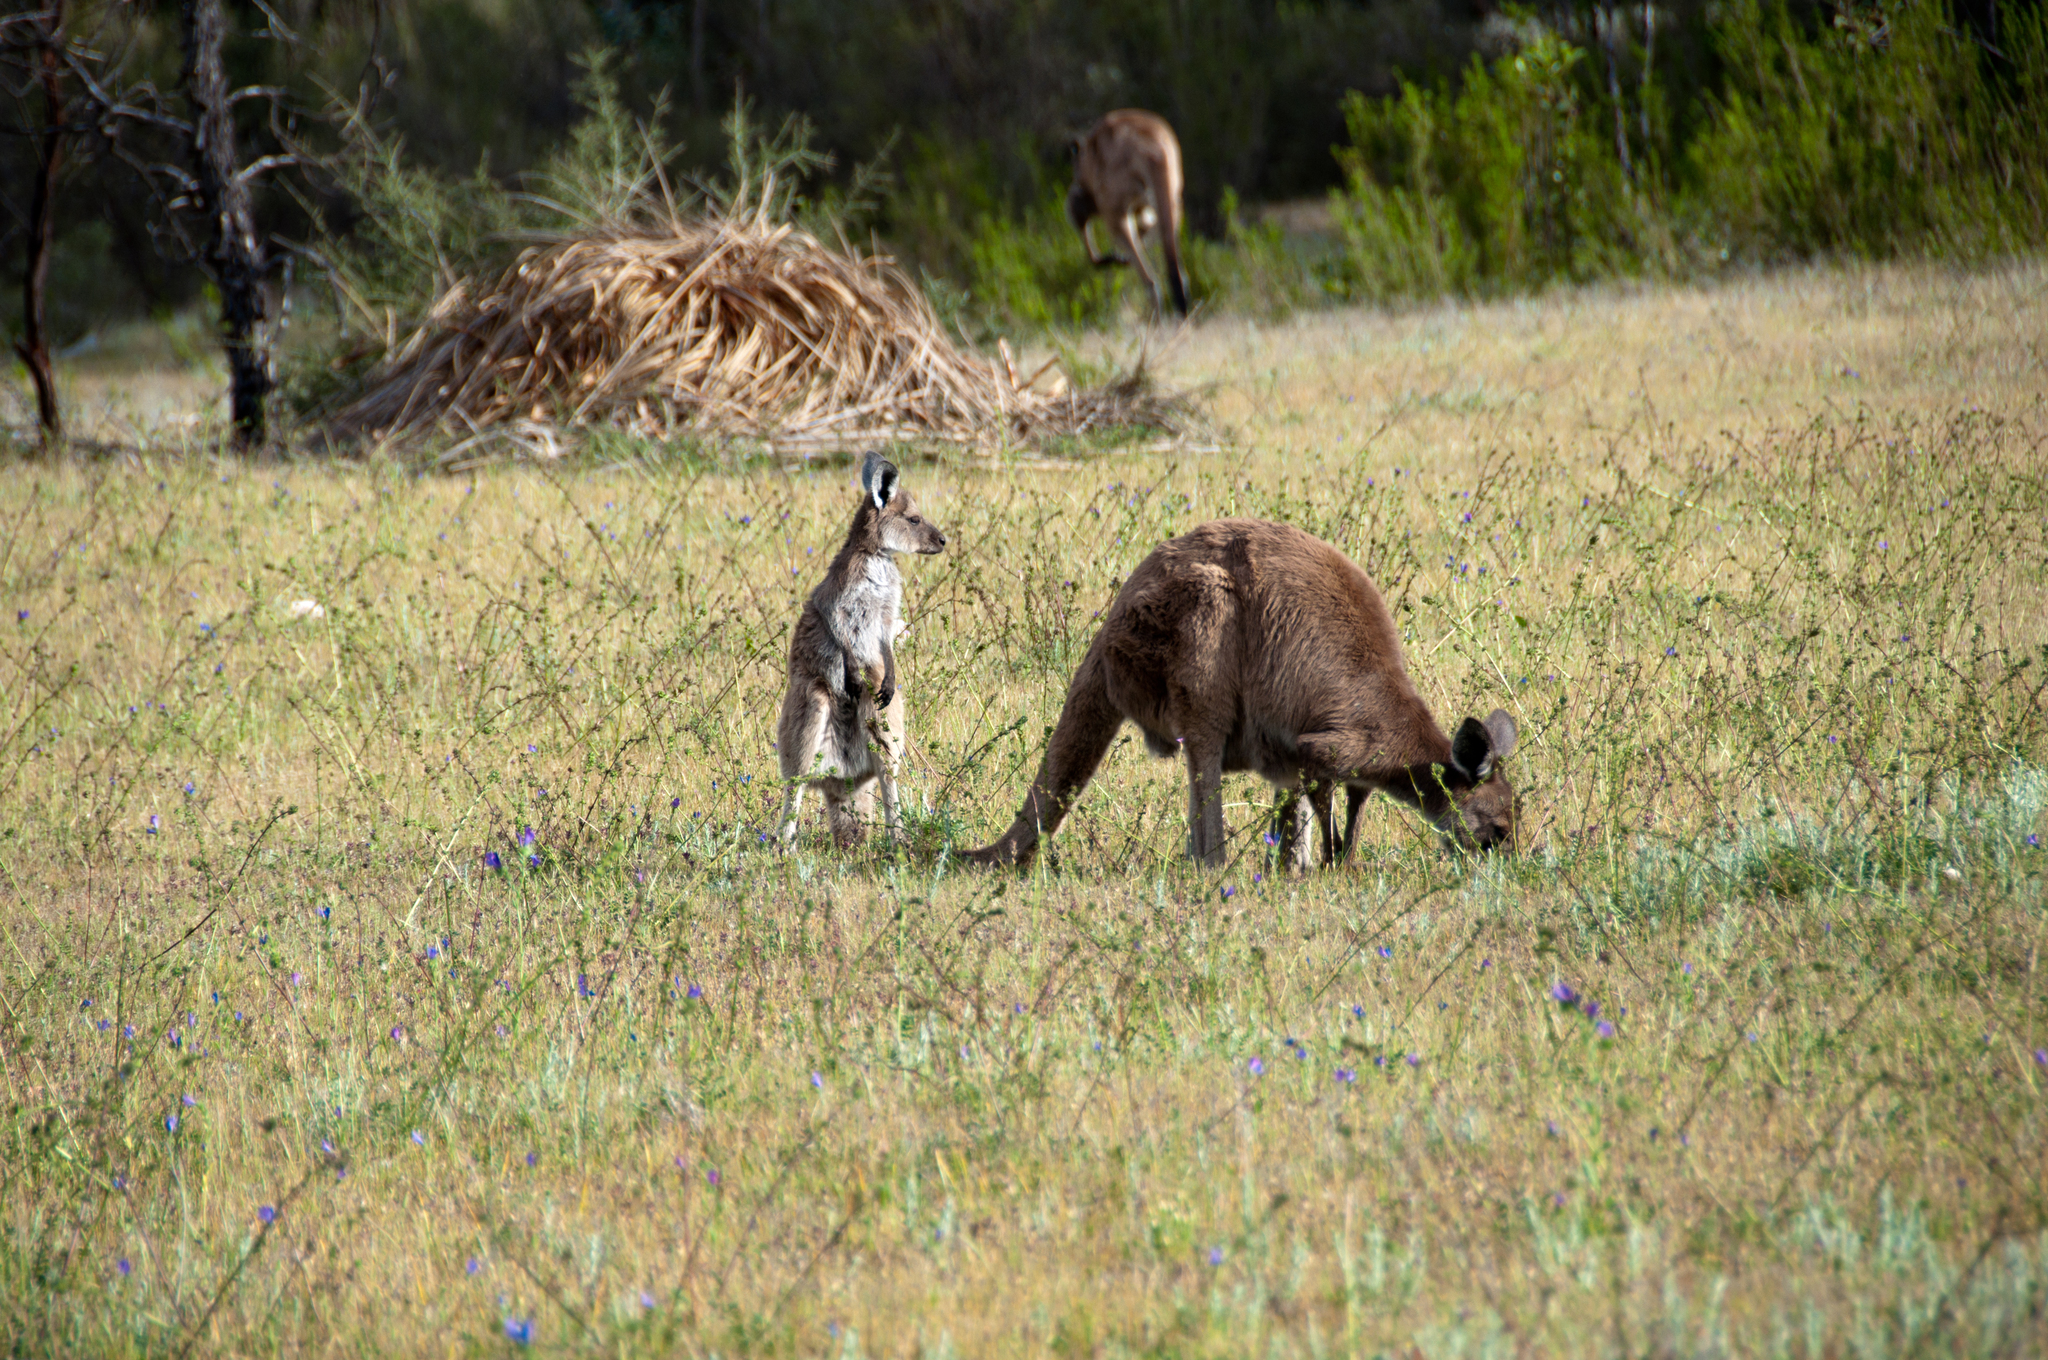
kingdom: Animalia
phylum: Chordata
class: Mammalia
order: Diprotodontia
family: Macropodidae
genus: Macropus
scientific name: Macropus fuliginosus
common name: Western grey kangaroo
